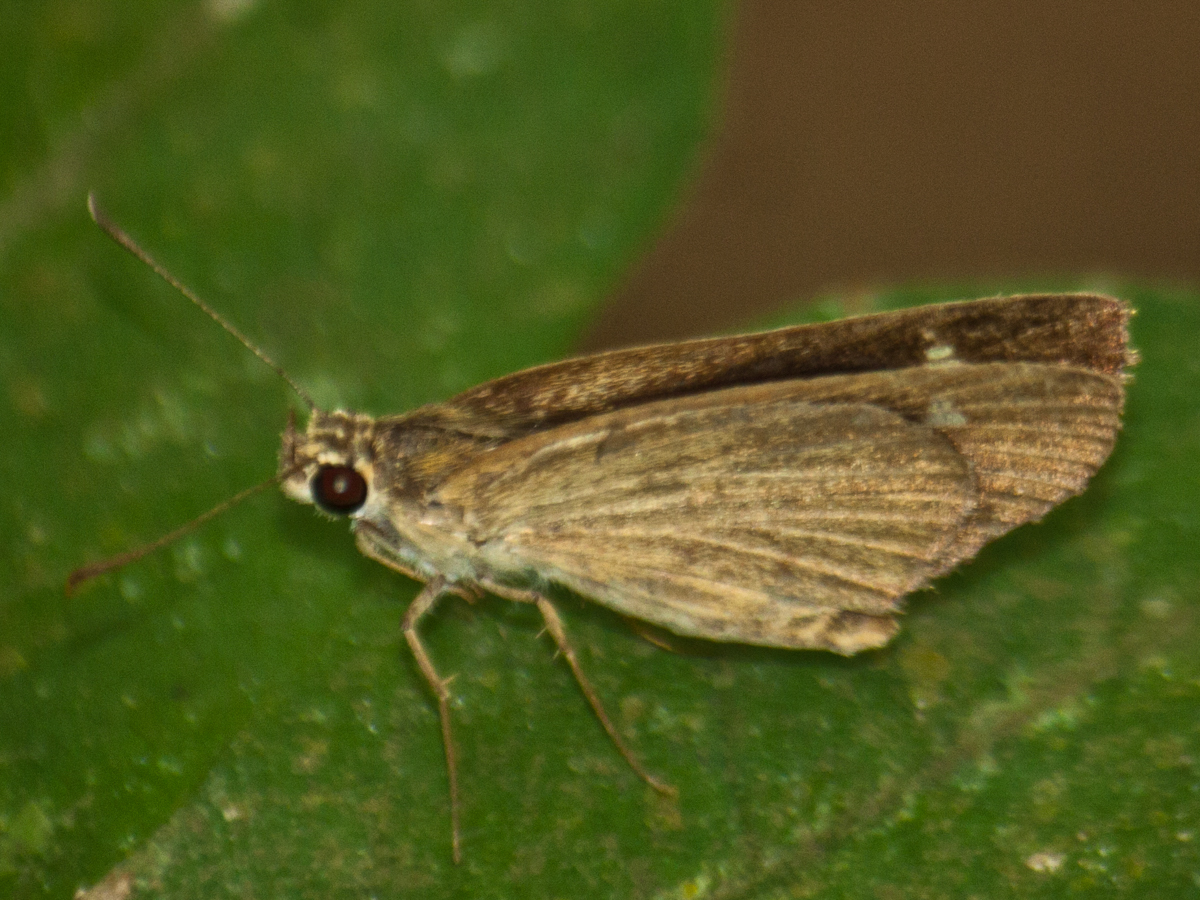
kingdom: Animalia
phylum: Arthropoda
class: Insecta
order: Lepidoptera
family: Hesperiidae
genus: Suada
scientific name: Suada swerga
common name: Grass bob
